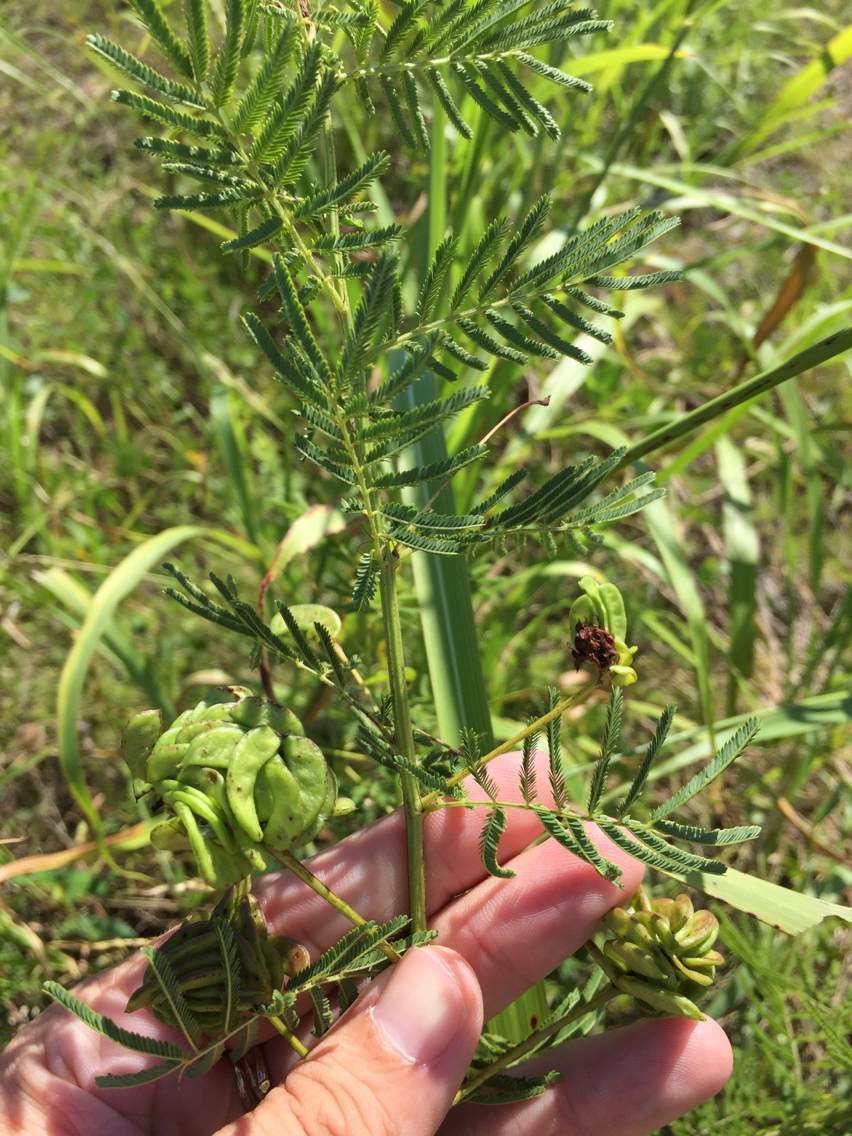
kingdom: Plantae
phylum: Tracheophyta
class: Magnoliopsida
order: Fabales
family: Fabaceae
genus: Desmanthus
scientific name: Desmanthus illinoensis
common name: Illinois bundle-flower
